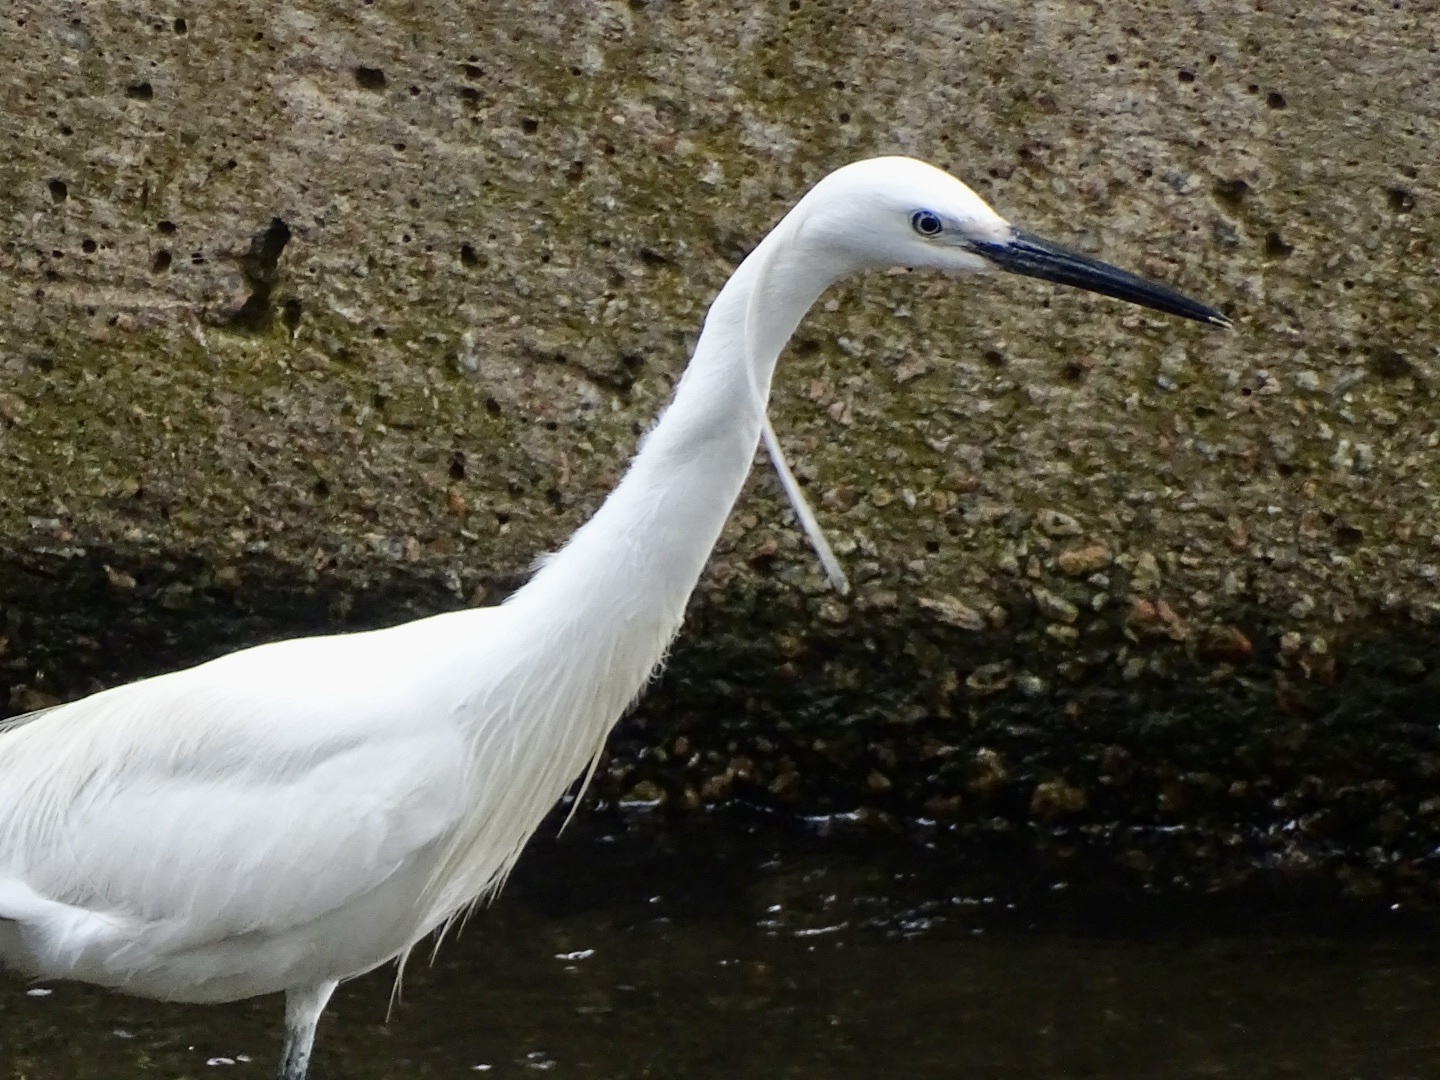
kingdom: Animalia
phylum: Chordata
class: Aves
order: Pelecaniformes
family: Ardeidae
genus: Egretta
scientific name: Egretta garzetta
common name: Little egret
